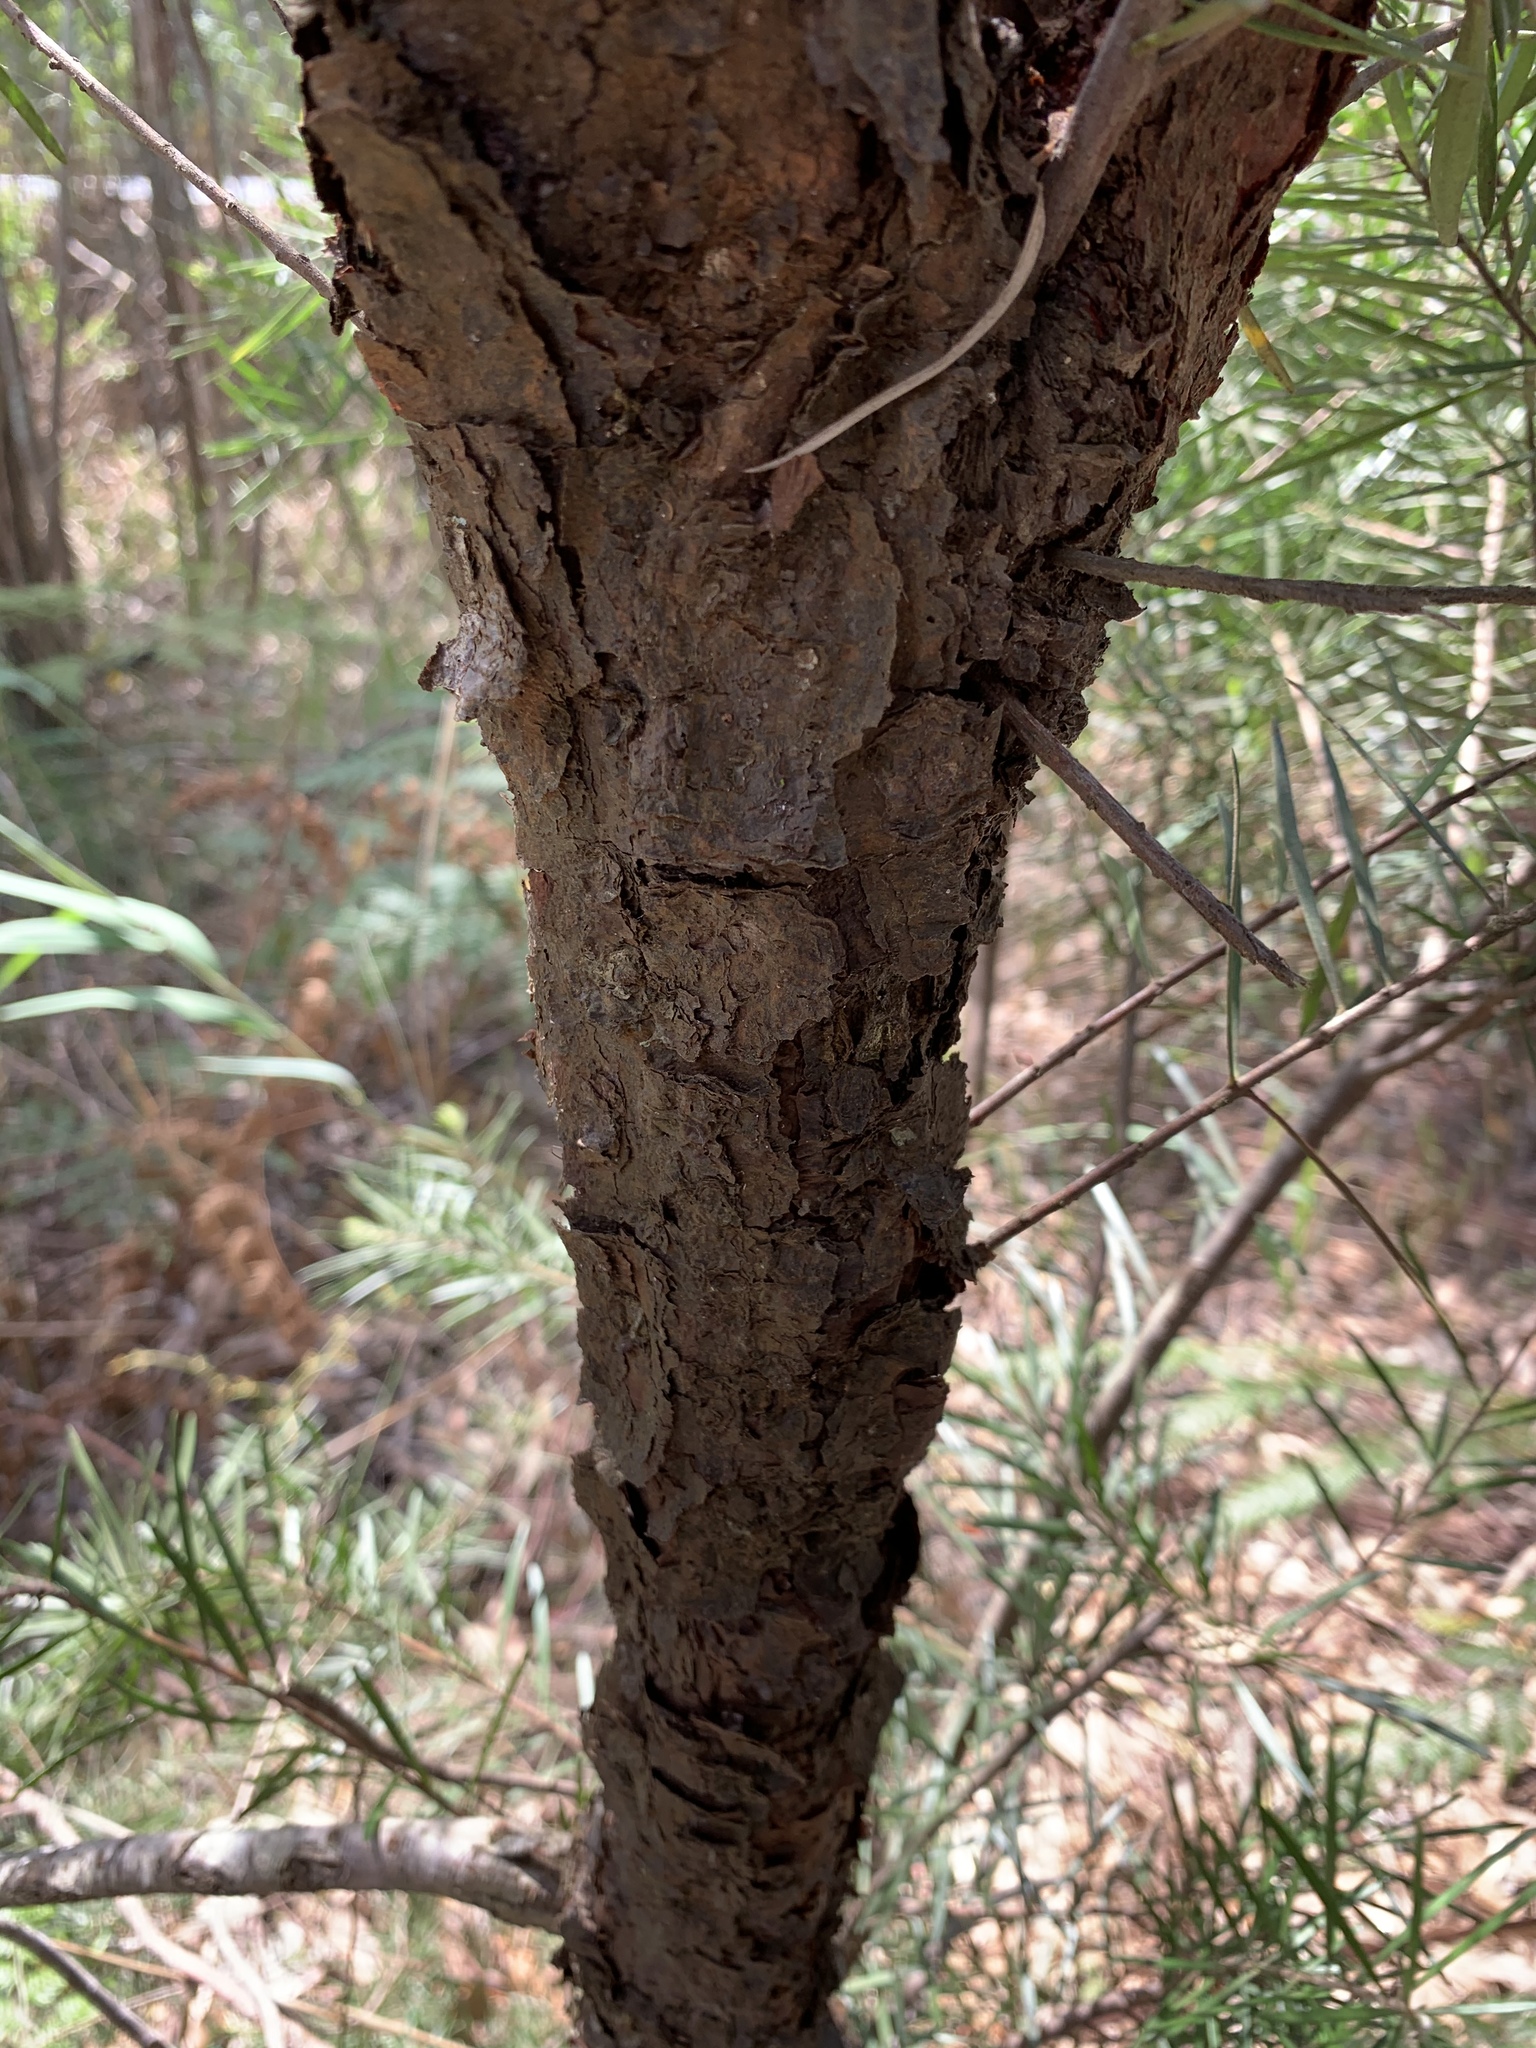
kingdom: Plantae
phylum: Tracheophyta
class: Magnoliopsida
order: Proteales
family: Proteaceae
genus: Persoonia
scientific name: Persoonia linearis
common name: Narrow-leaf geebung
